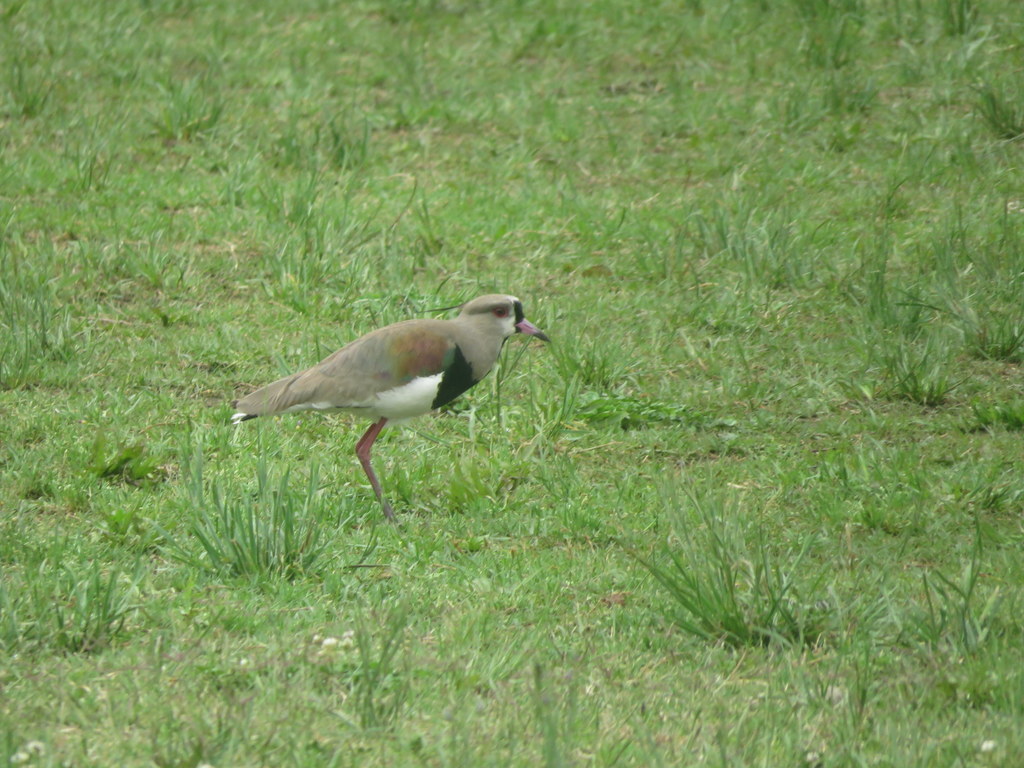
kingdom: Animalia
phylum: Chordata
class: Aves
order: Charadriiformes
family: Charadriidae
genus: Vanellus
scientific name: Vanellus chilensis
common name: Southern lapwing
